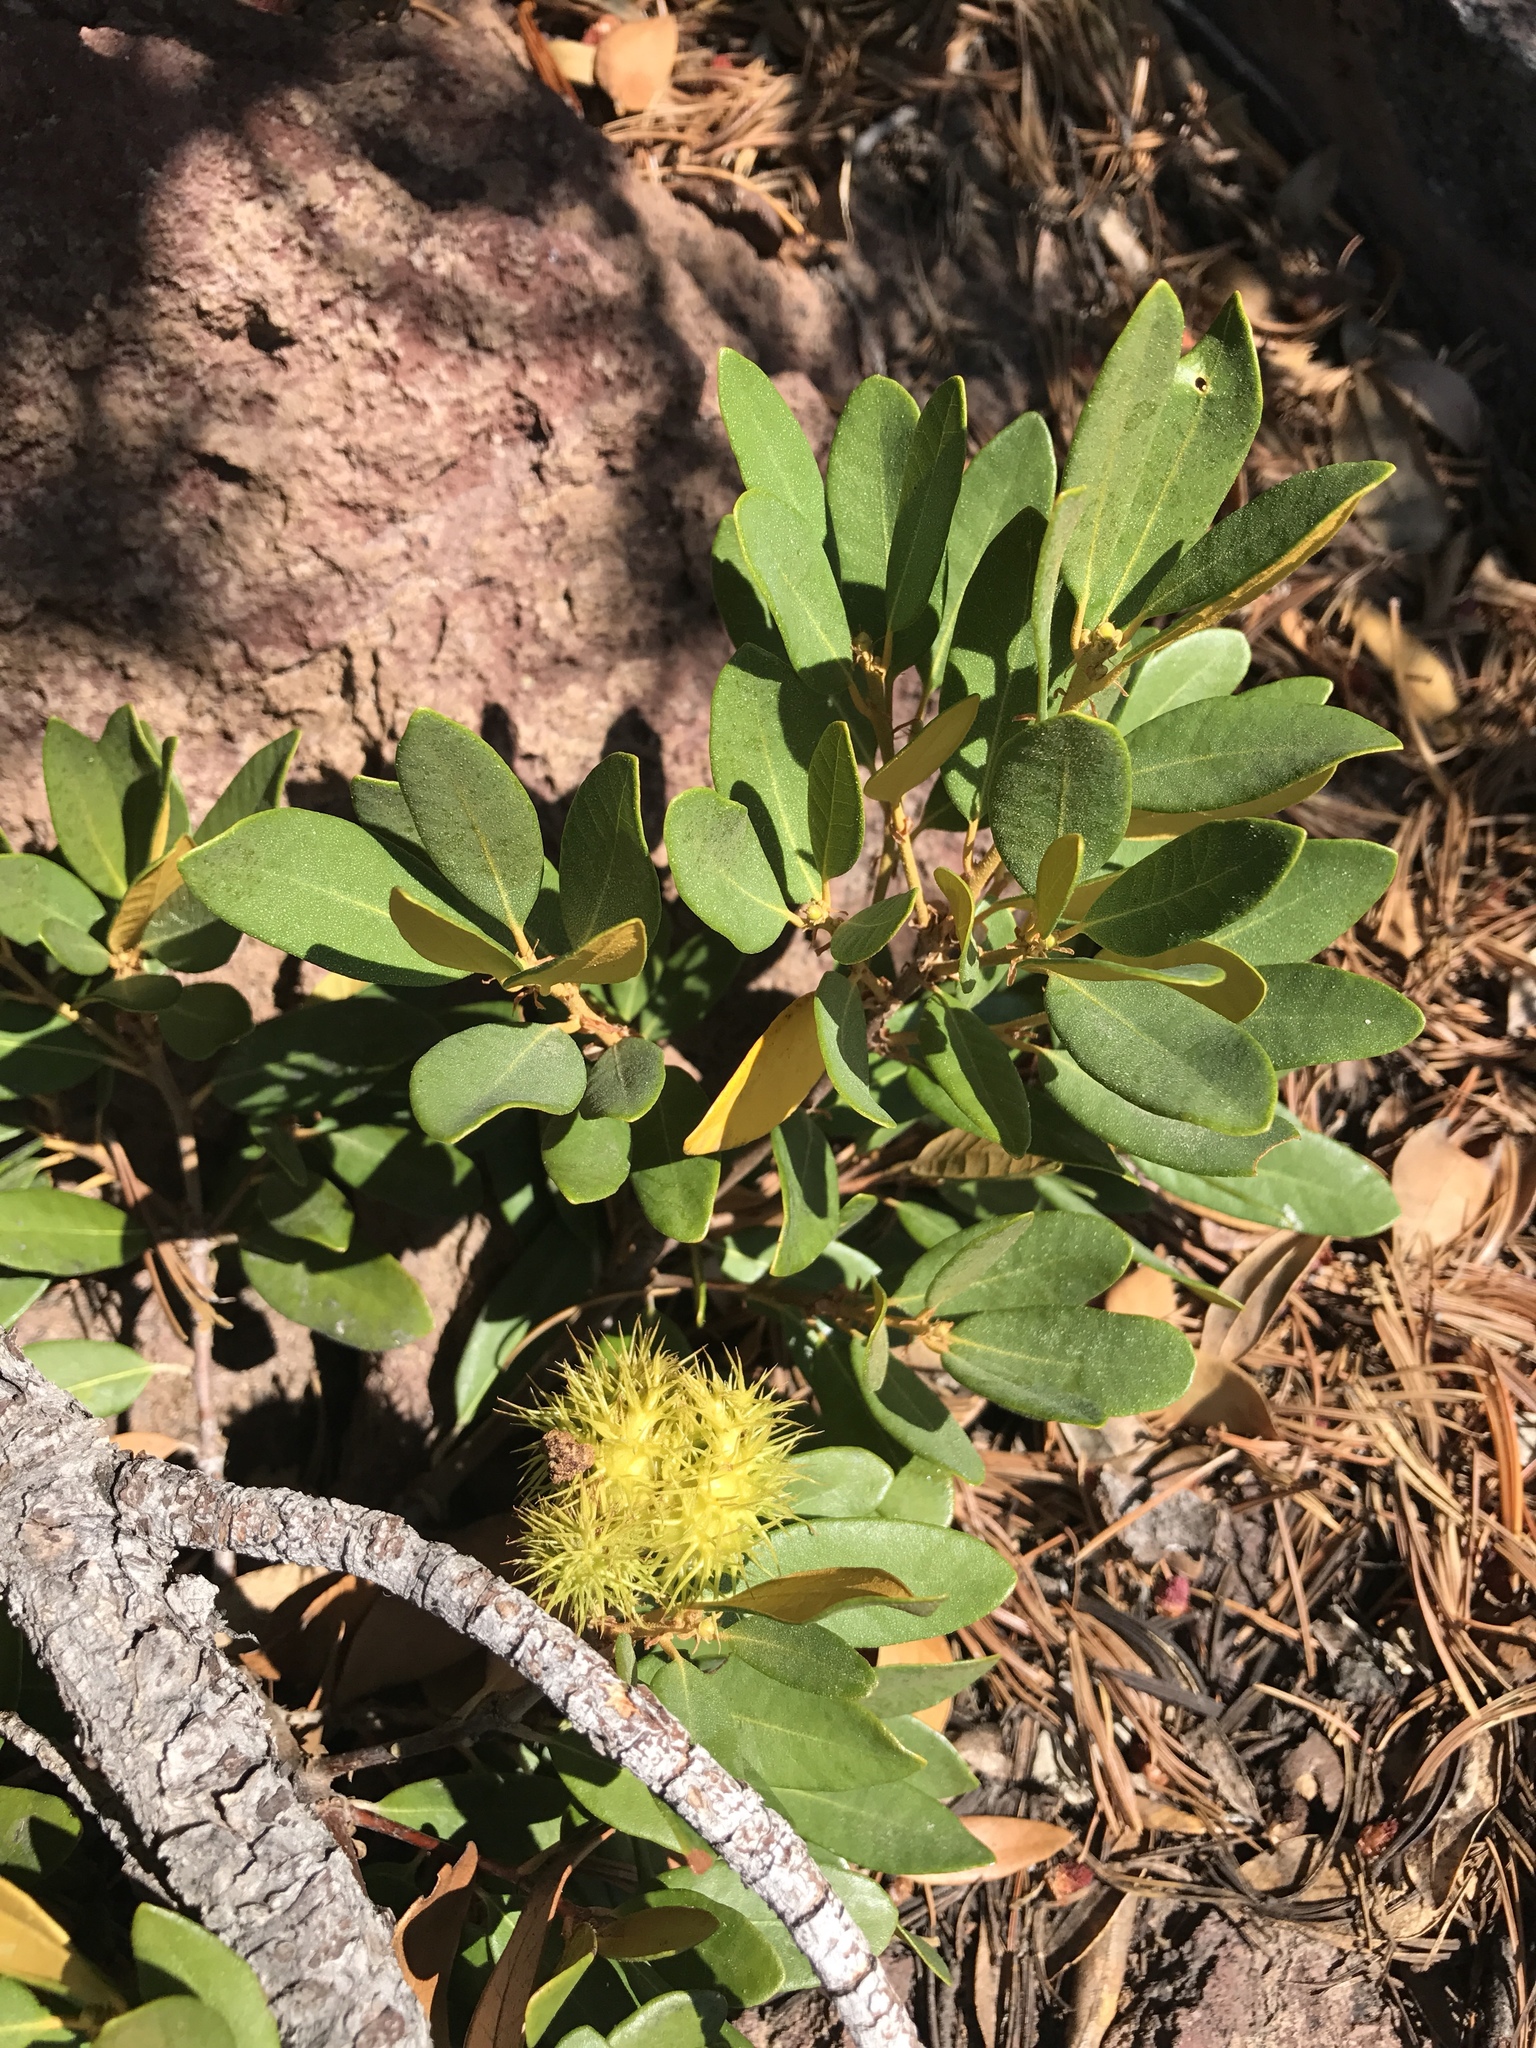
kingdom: Plantae
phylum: Tracheophyta
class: Magnoliopsida
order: Fagales
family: Fagaceae
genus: Chrysolepis
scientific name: Chrysolepis sempervirens
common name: Bush chinquapin
